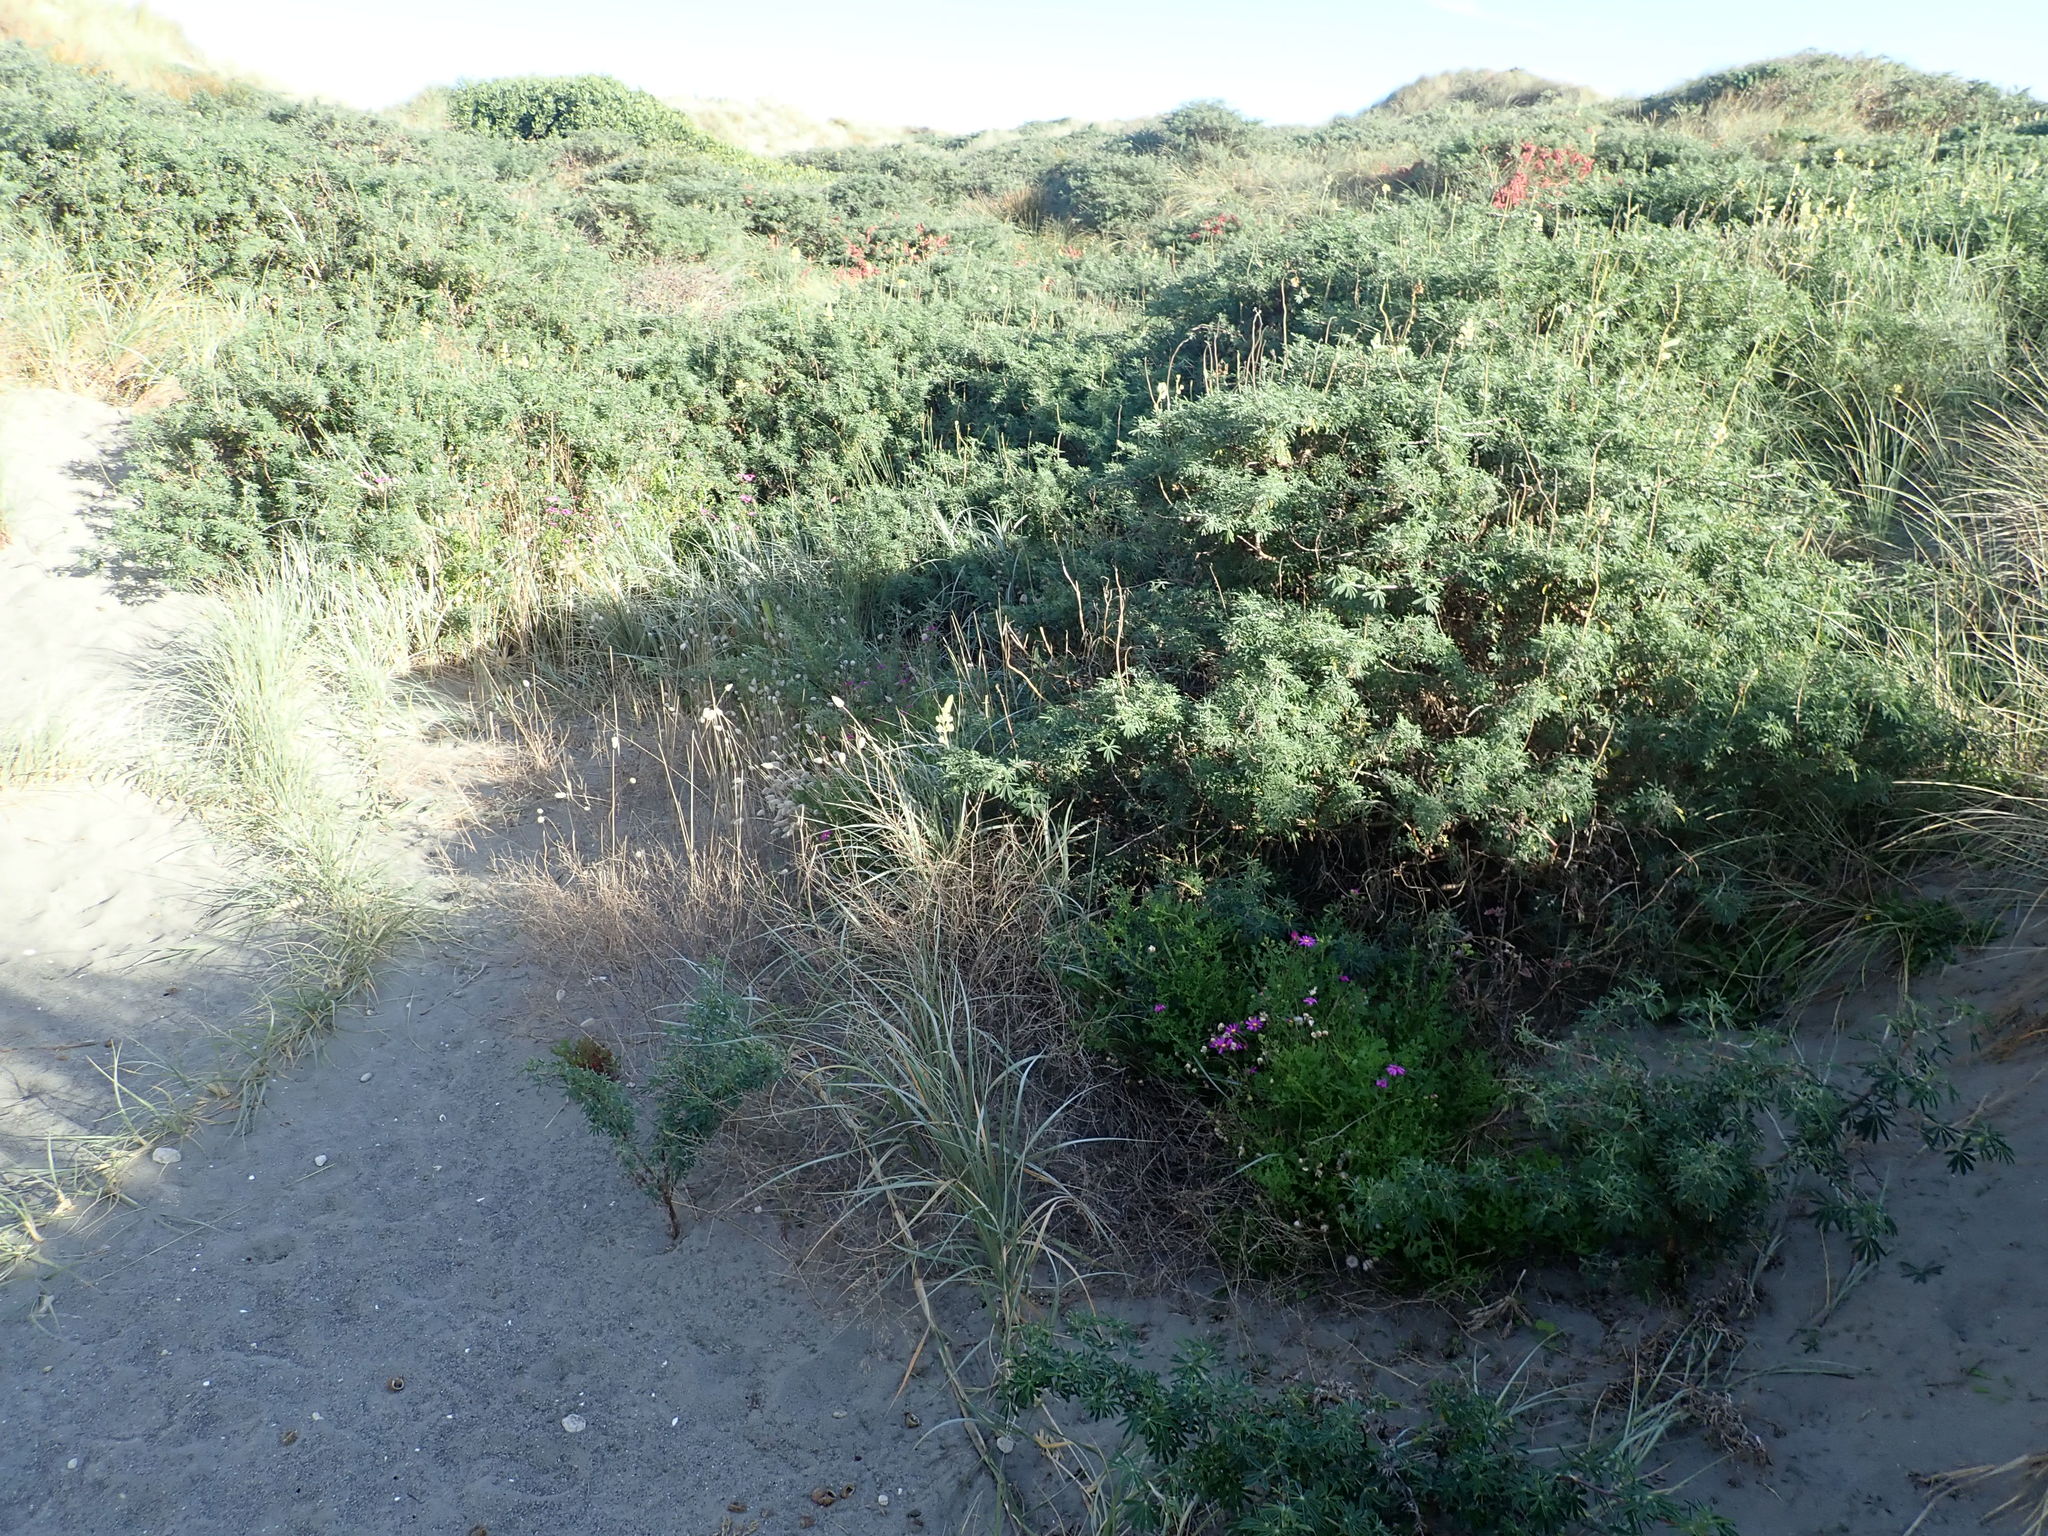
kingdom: Plantae
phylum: Tracheophyta
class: Magnoliopsida
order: Asterales
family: Asteraceae
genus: Senecio
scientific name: Senecio elegans
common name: Purple groundsel
